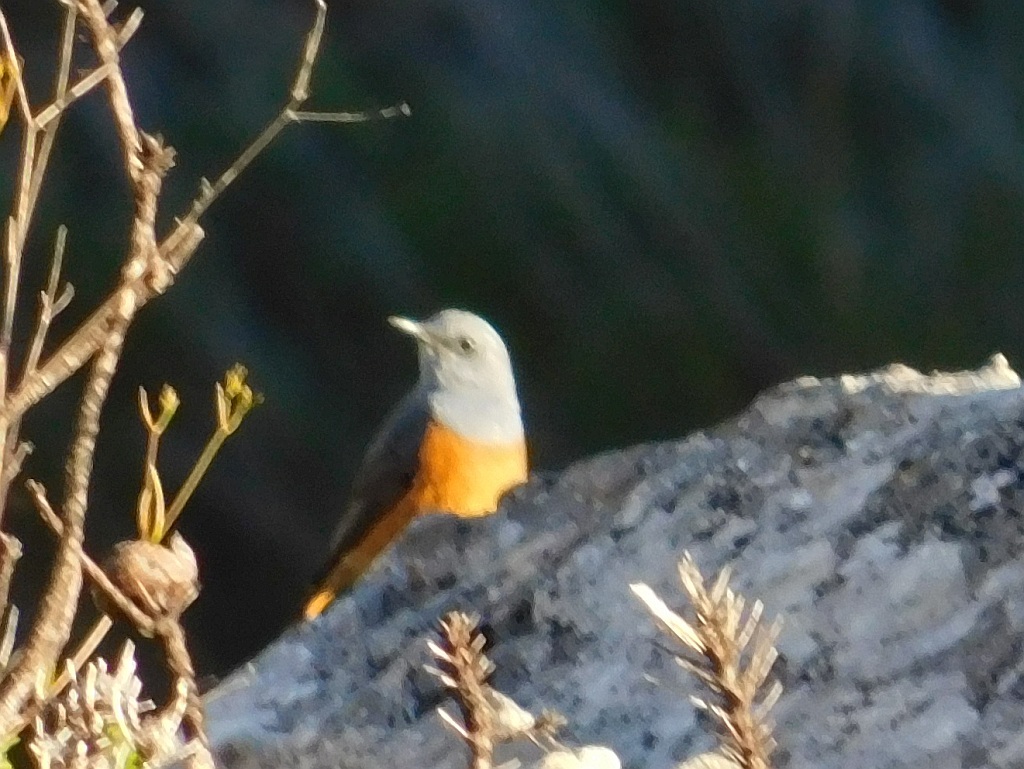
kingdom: Animalia
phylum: Chordata
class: Aves
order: Passeriformes
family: Muscicapidae
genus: Monticola
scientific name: Monticola rupestris
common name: Cape rock thrush
